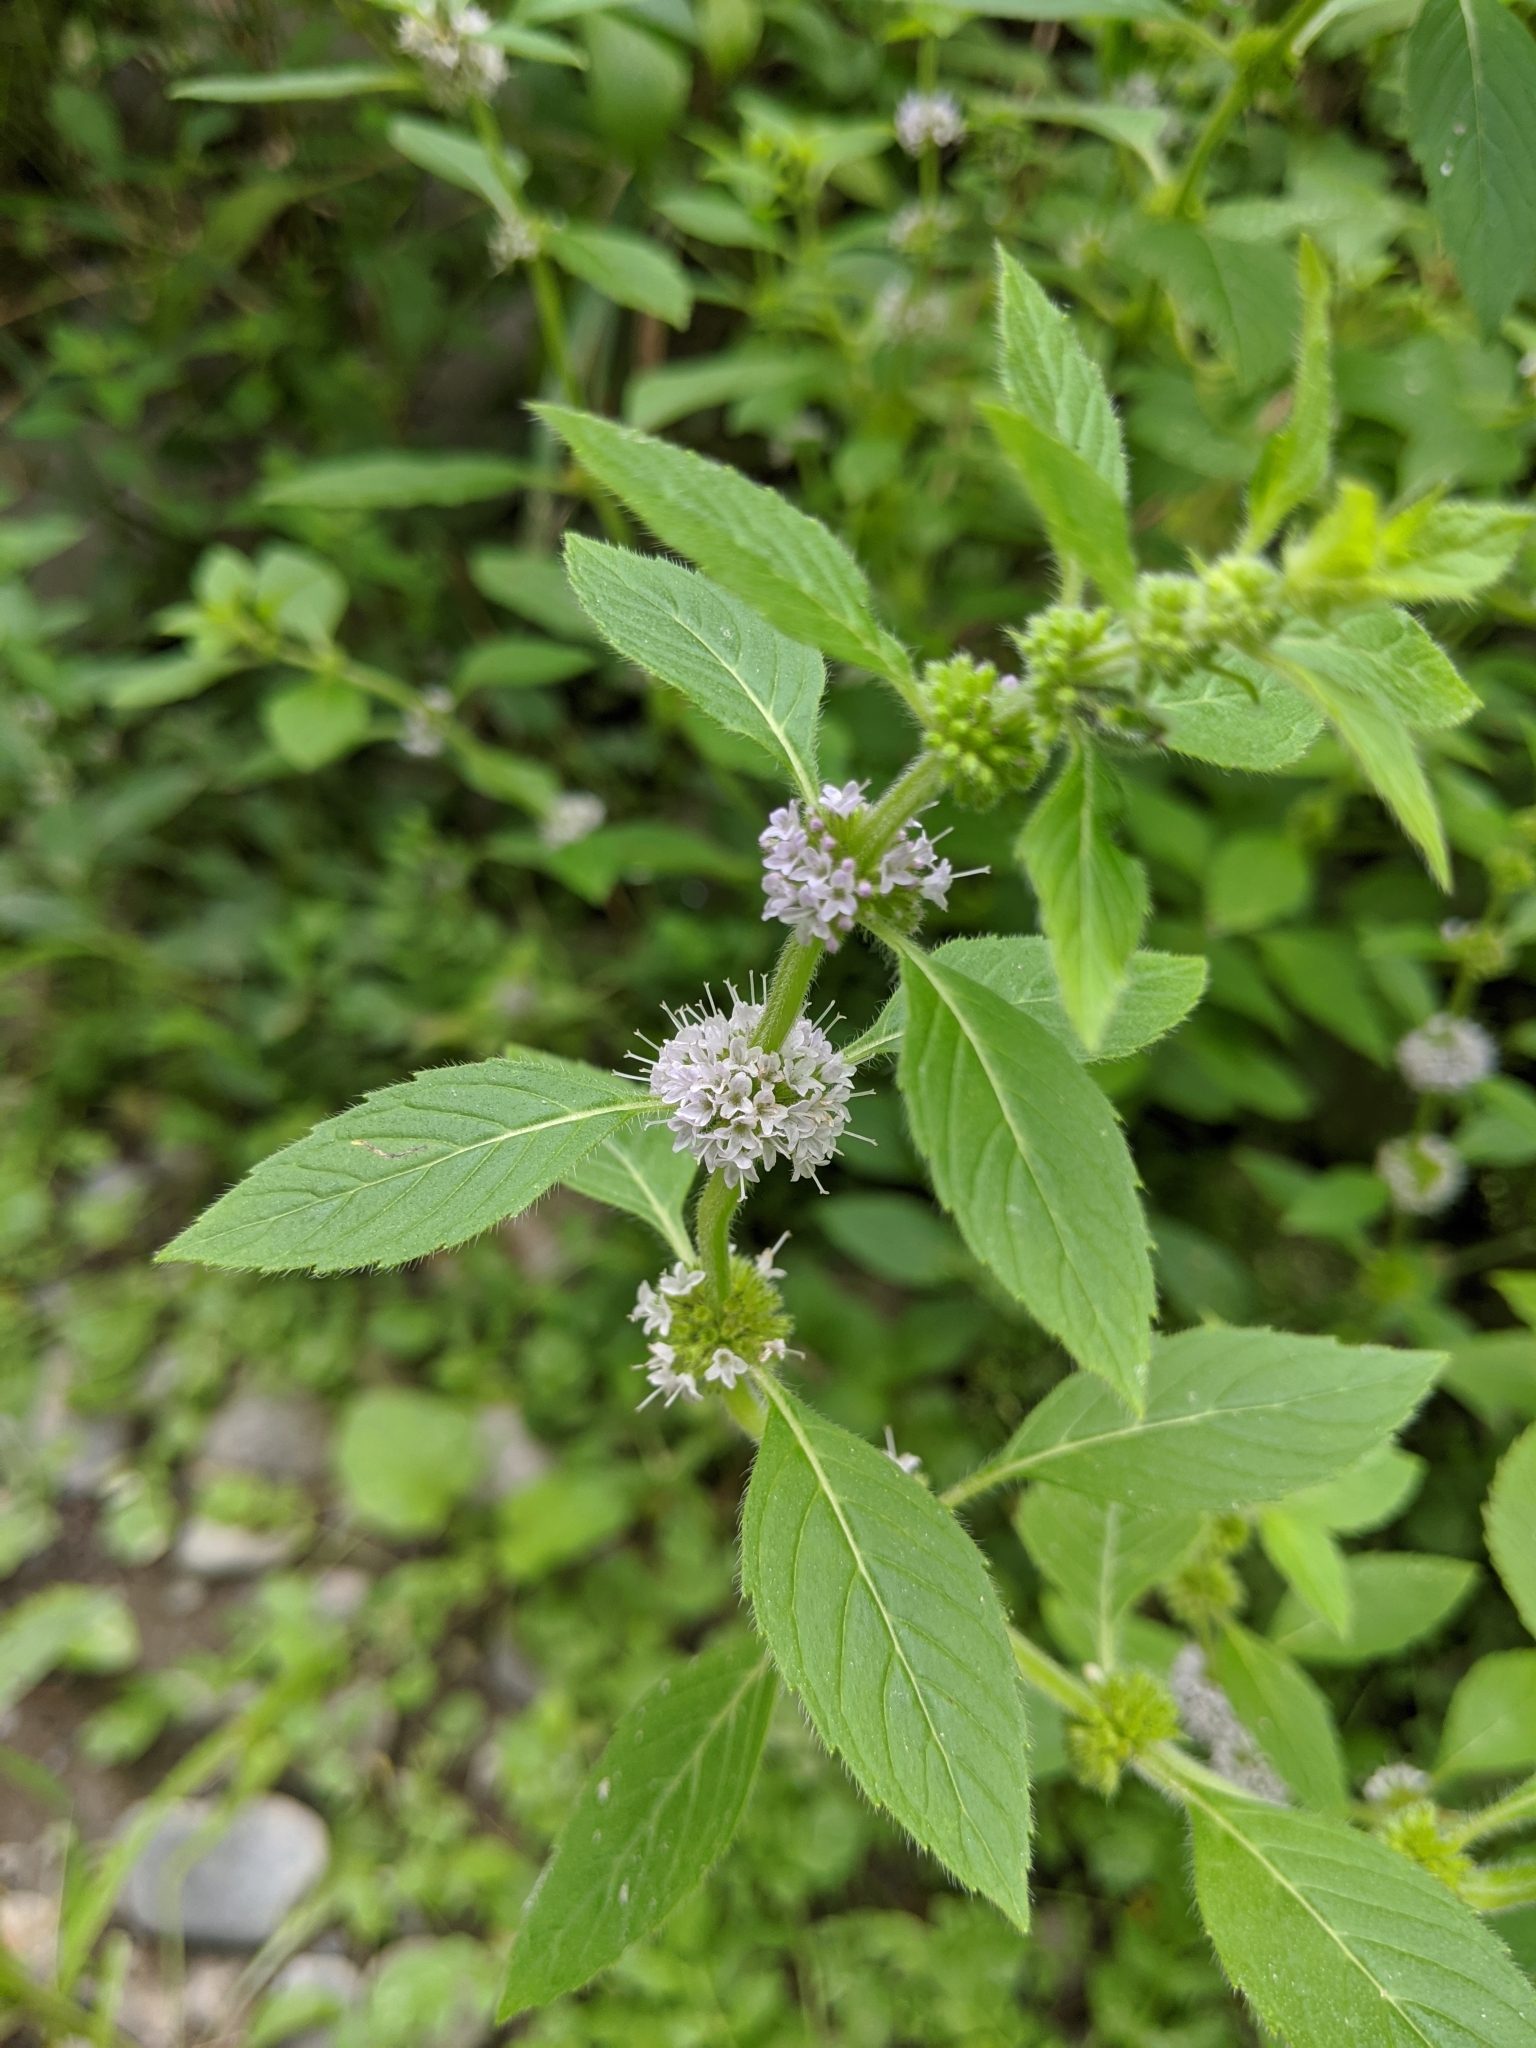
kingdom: Plantae
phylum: Tracheophyta
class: Magnoliopsida
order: Lamiales
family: Lamiaceae
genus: Mentha
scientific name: Mentha canadensis
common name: American corn mint
